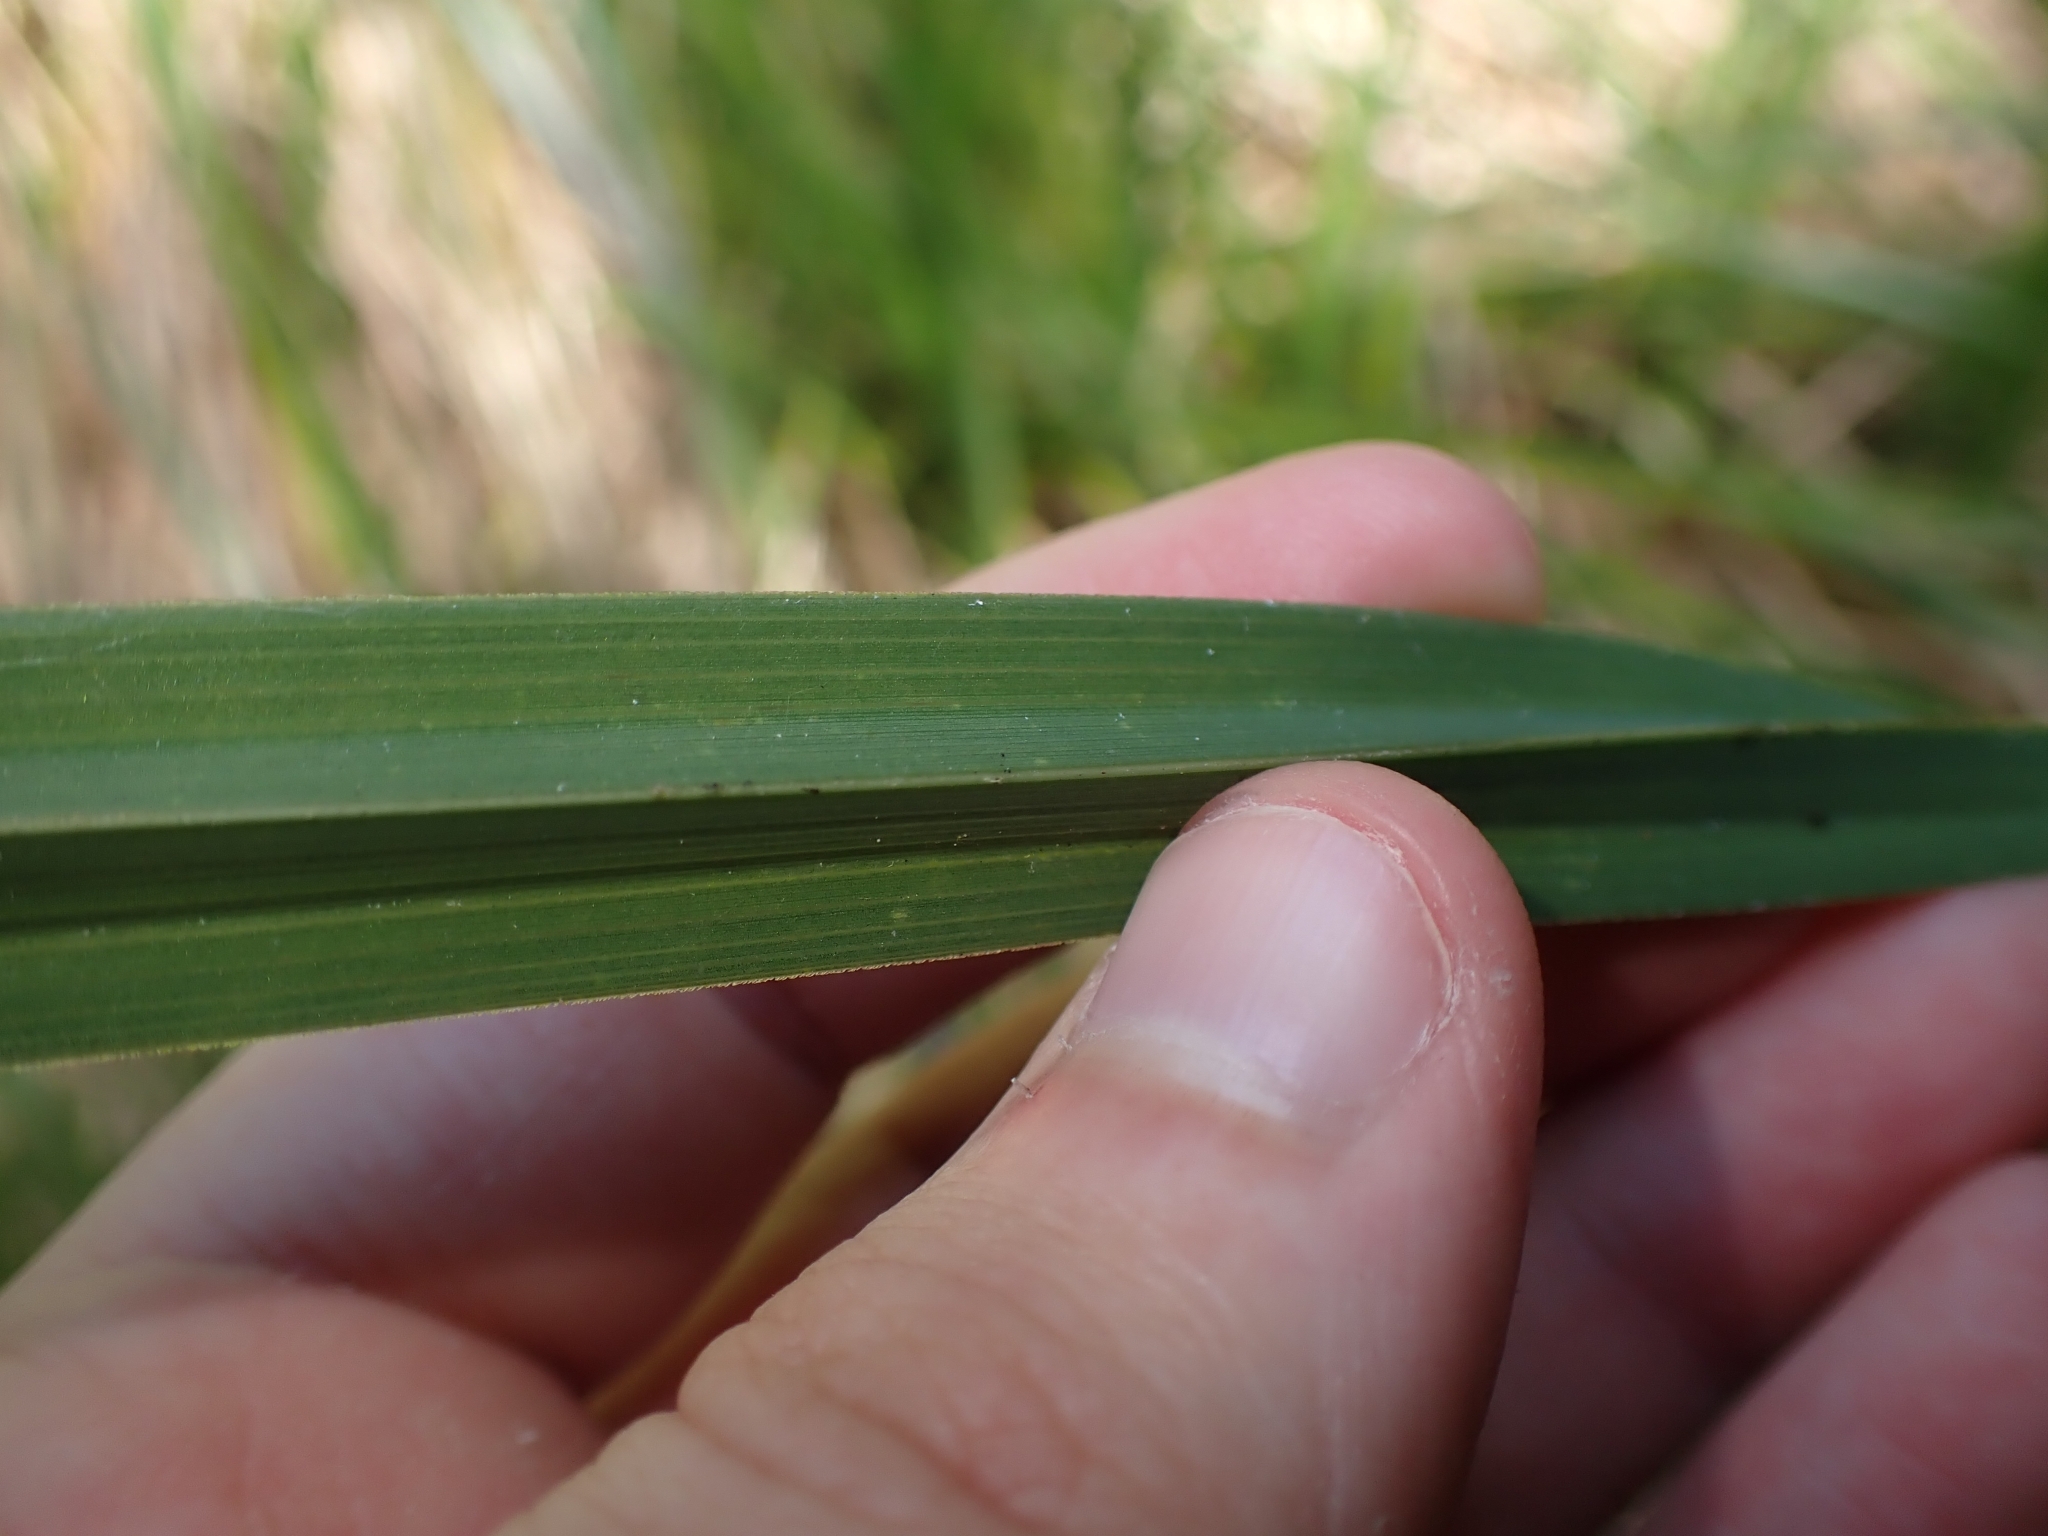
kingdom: Plantae
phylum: Tracheophyta
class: Liliopsida
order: Poales
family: Cyperaceae
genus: Carex
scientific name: Carex geminata
